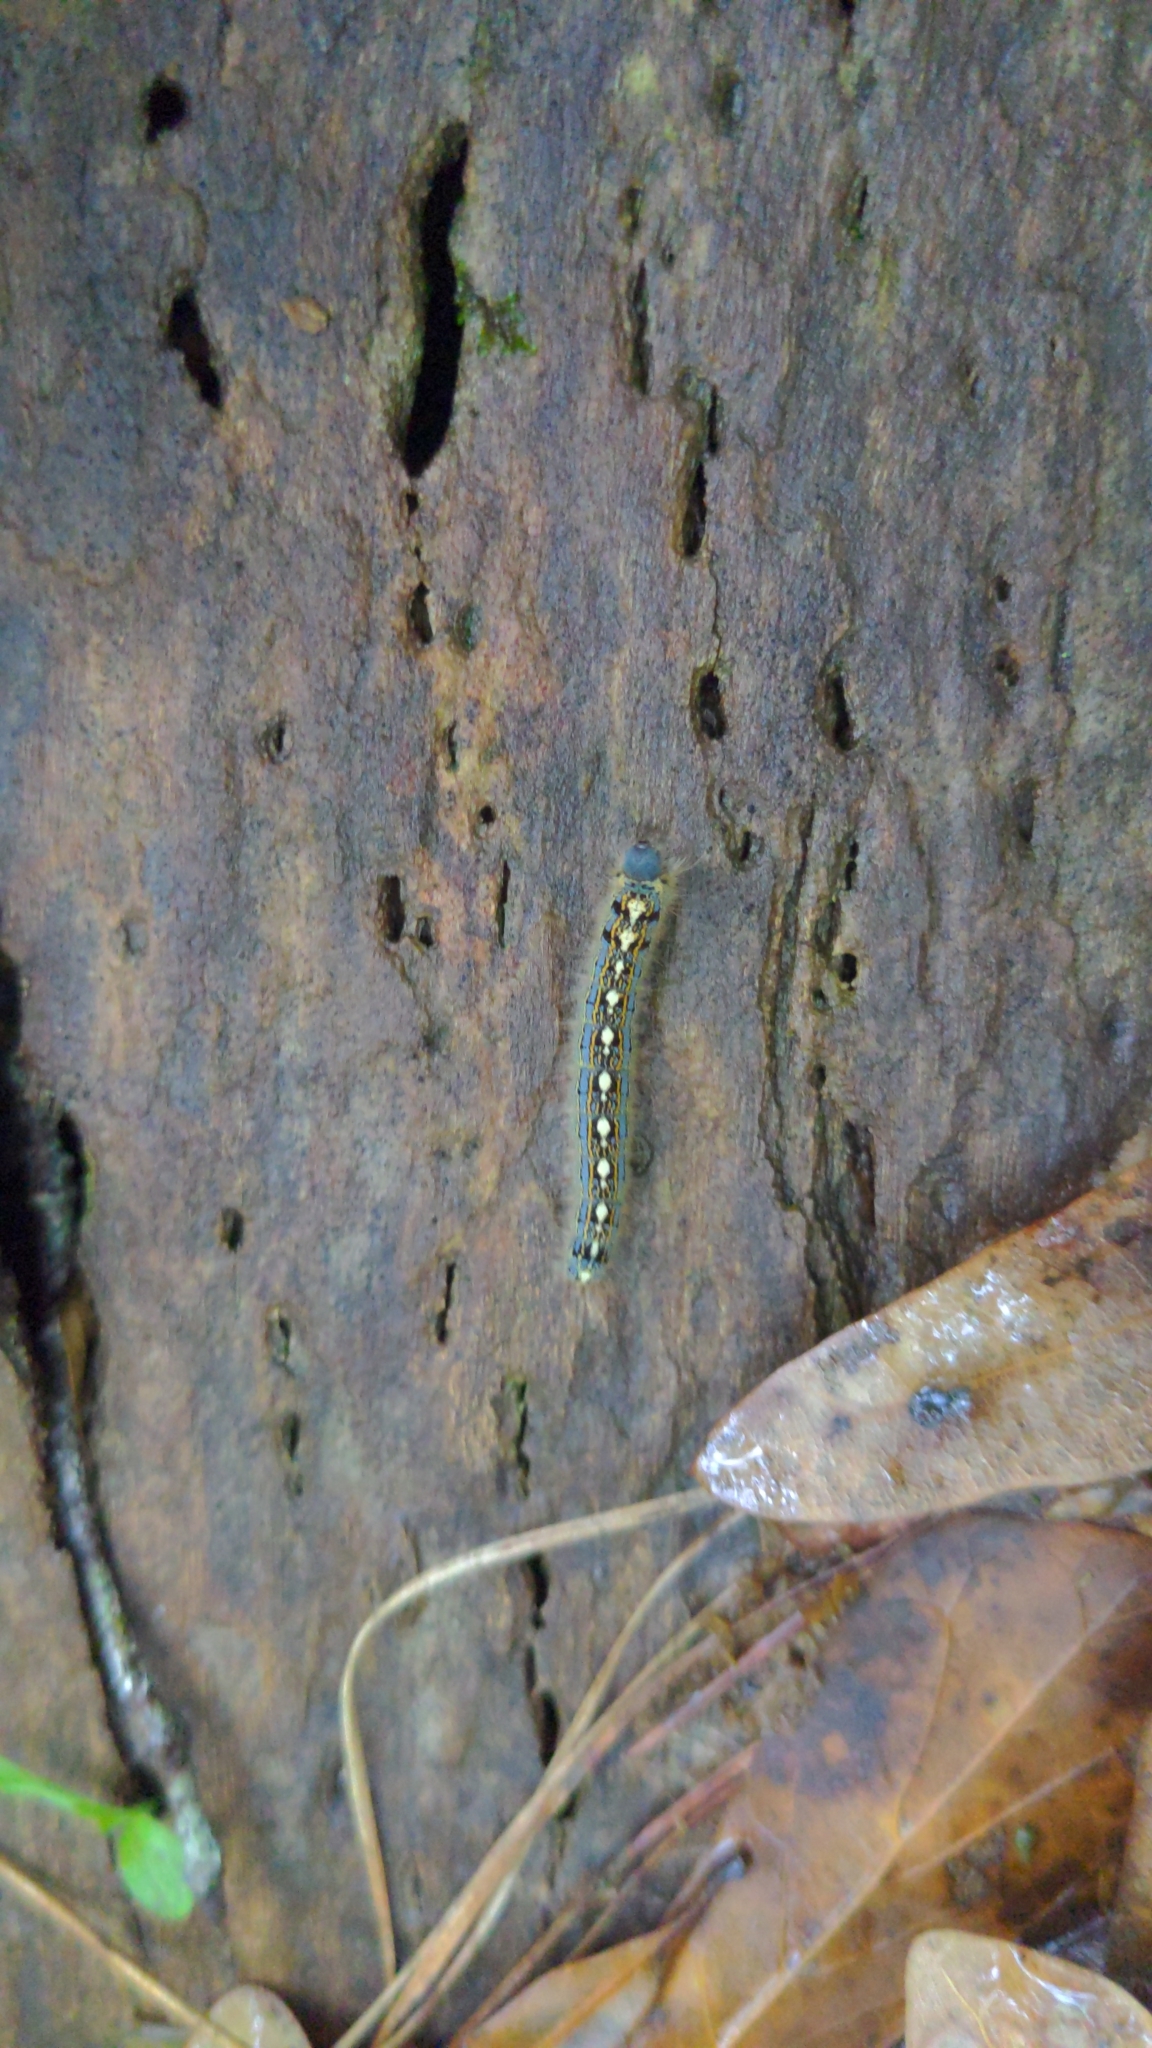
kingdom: Animalia
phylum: Arthropoda
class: Insecta
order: Lepidoptera
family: Lasiocampidae
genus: Malacosoma
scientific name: Malacosoma disstria
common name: Forest tent caterpillar
